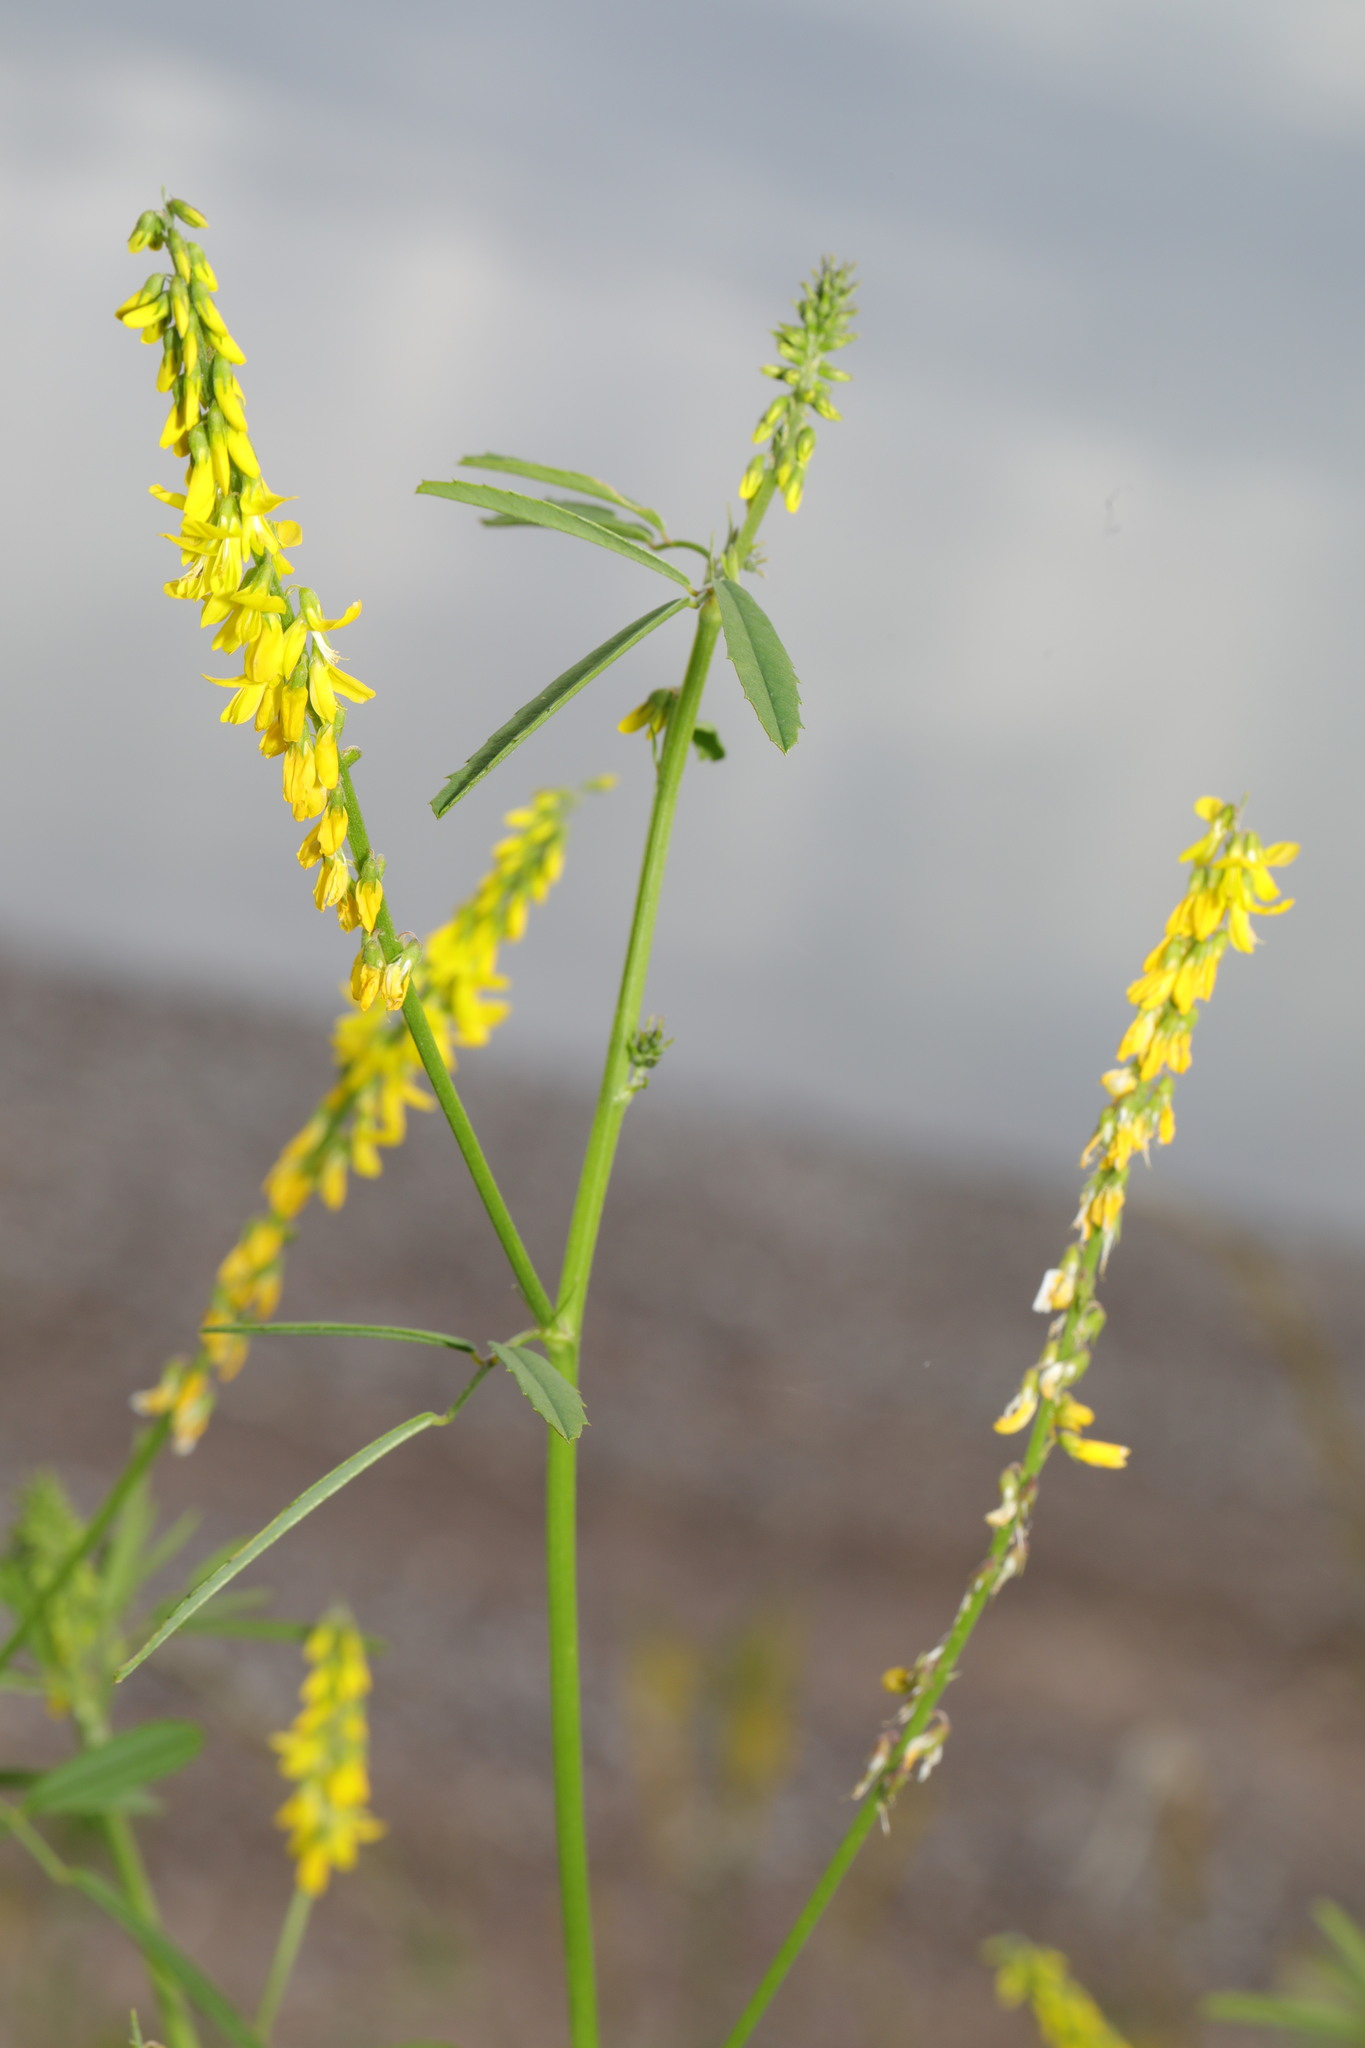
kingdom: Plantae
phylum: Tracheophyta
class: Magnoliopsida
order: Fabales
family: Fabaceae
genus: Melilotus
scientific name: Melilotus officinalis
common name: Sweetclover
